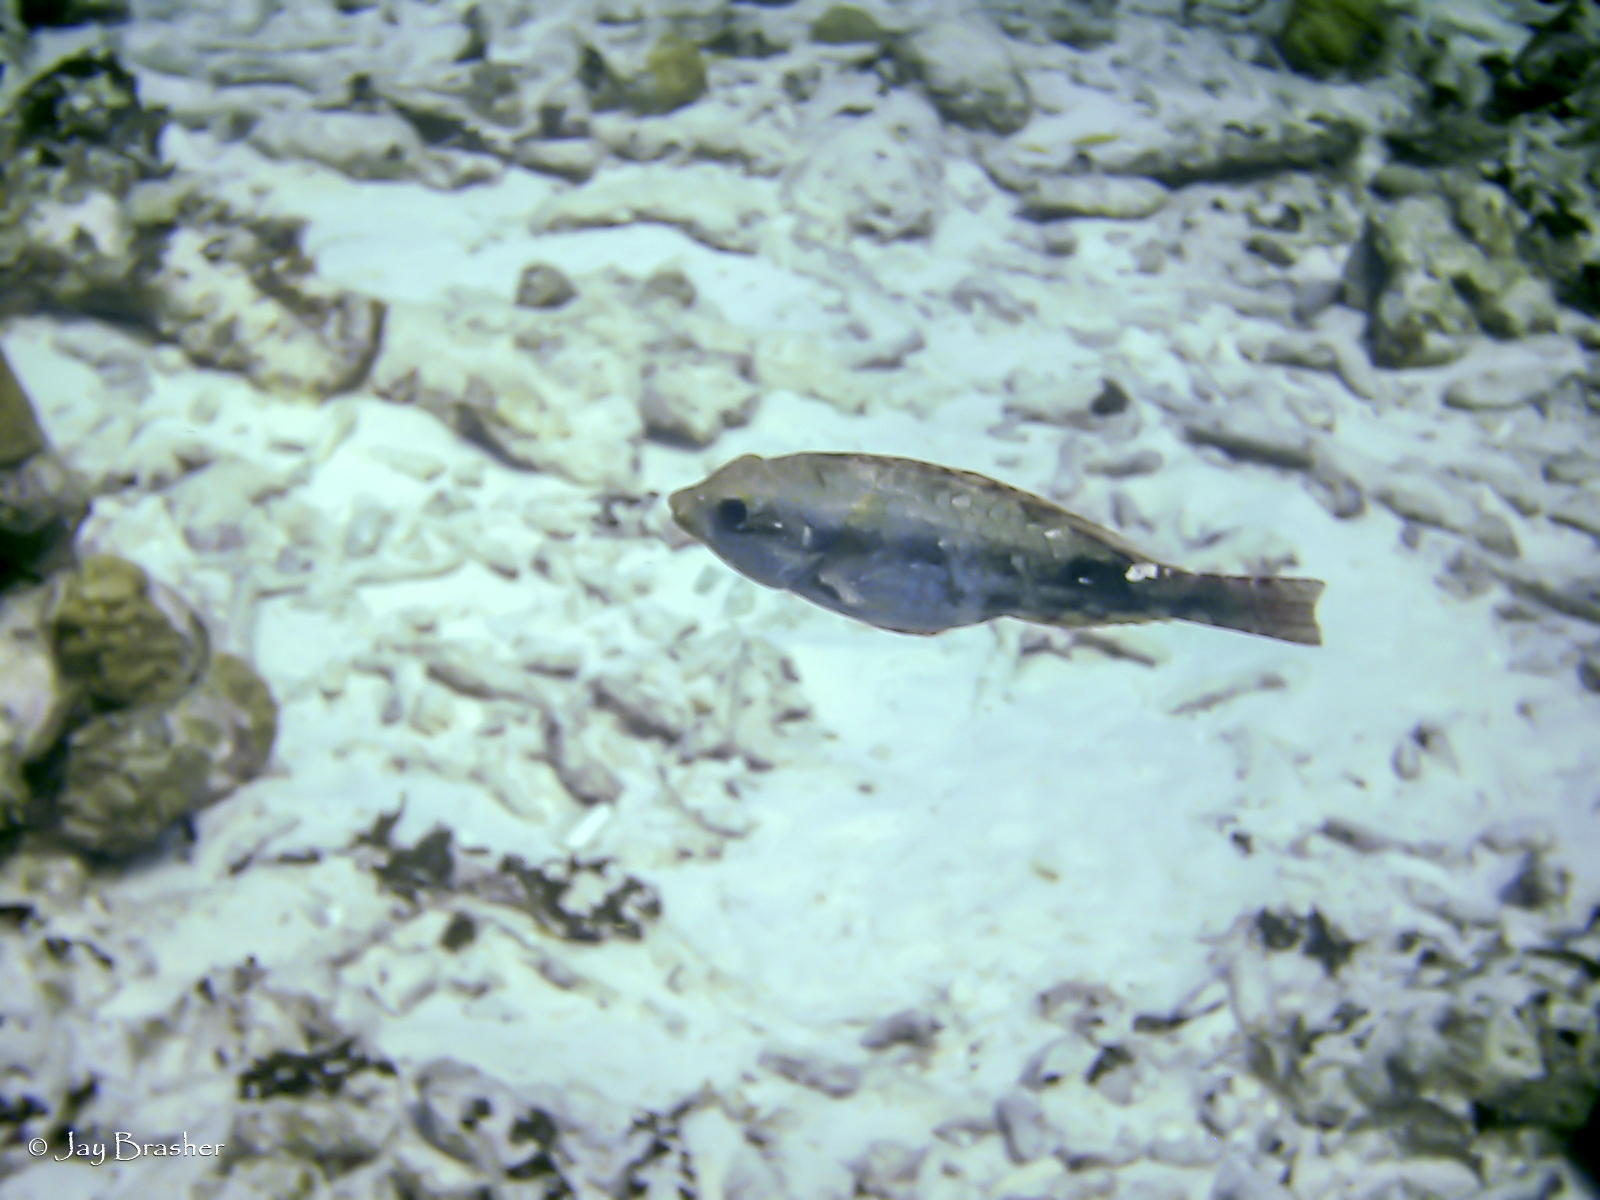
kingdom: Animalia
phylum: Chordata
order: Perciformes
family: Scaridae
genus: Sparisoma
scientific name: Sparisoma aurofrenatum
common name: Redband parrotfish
